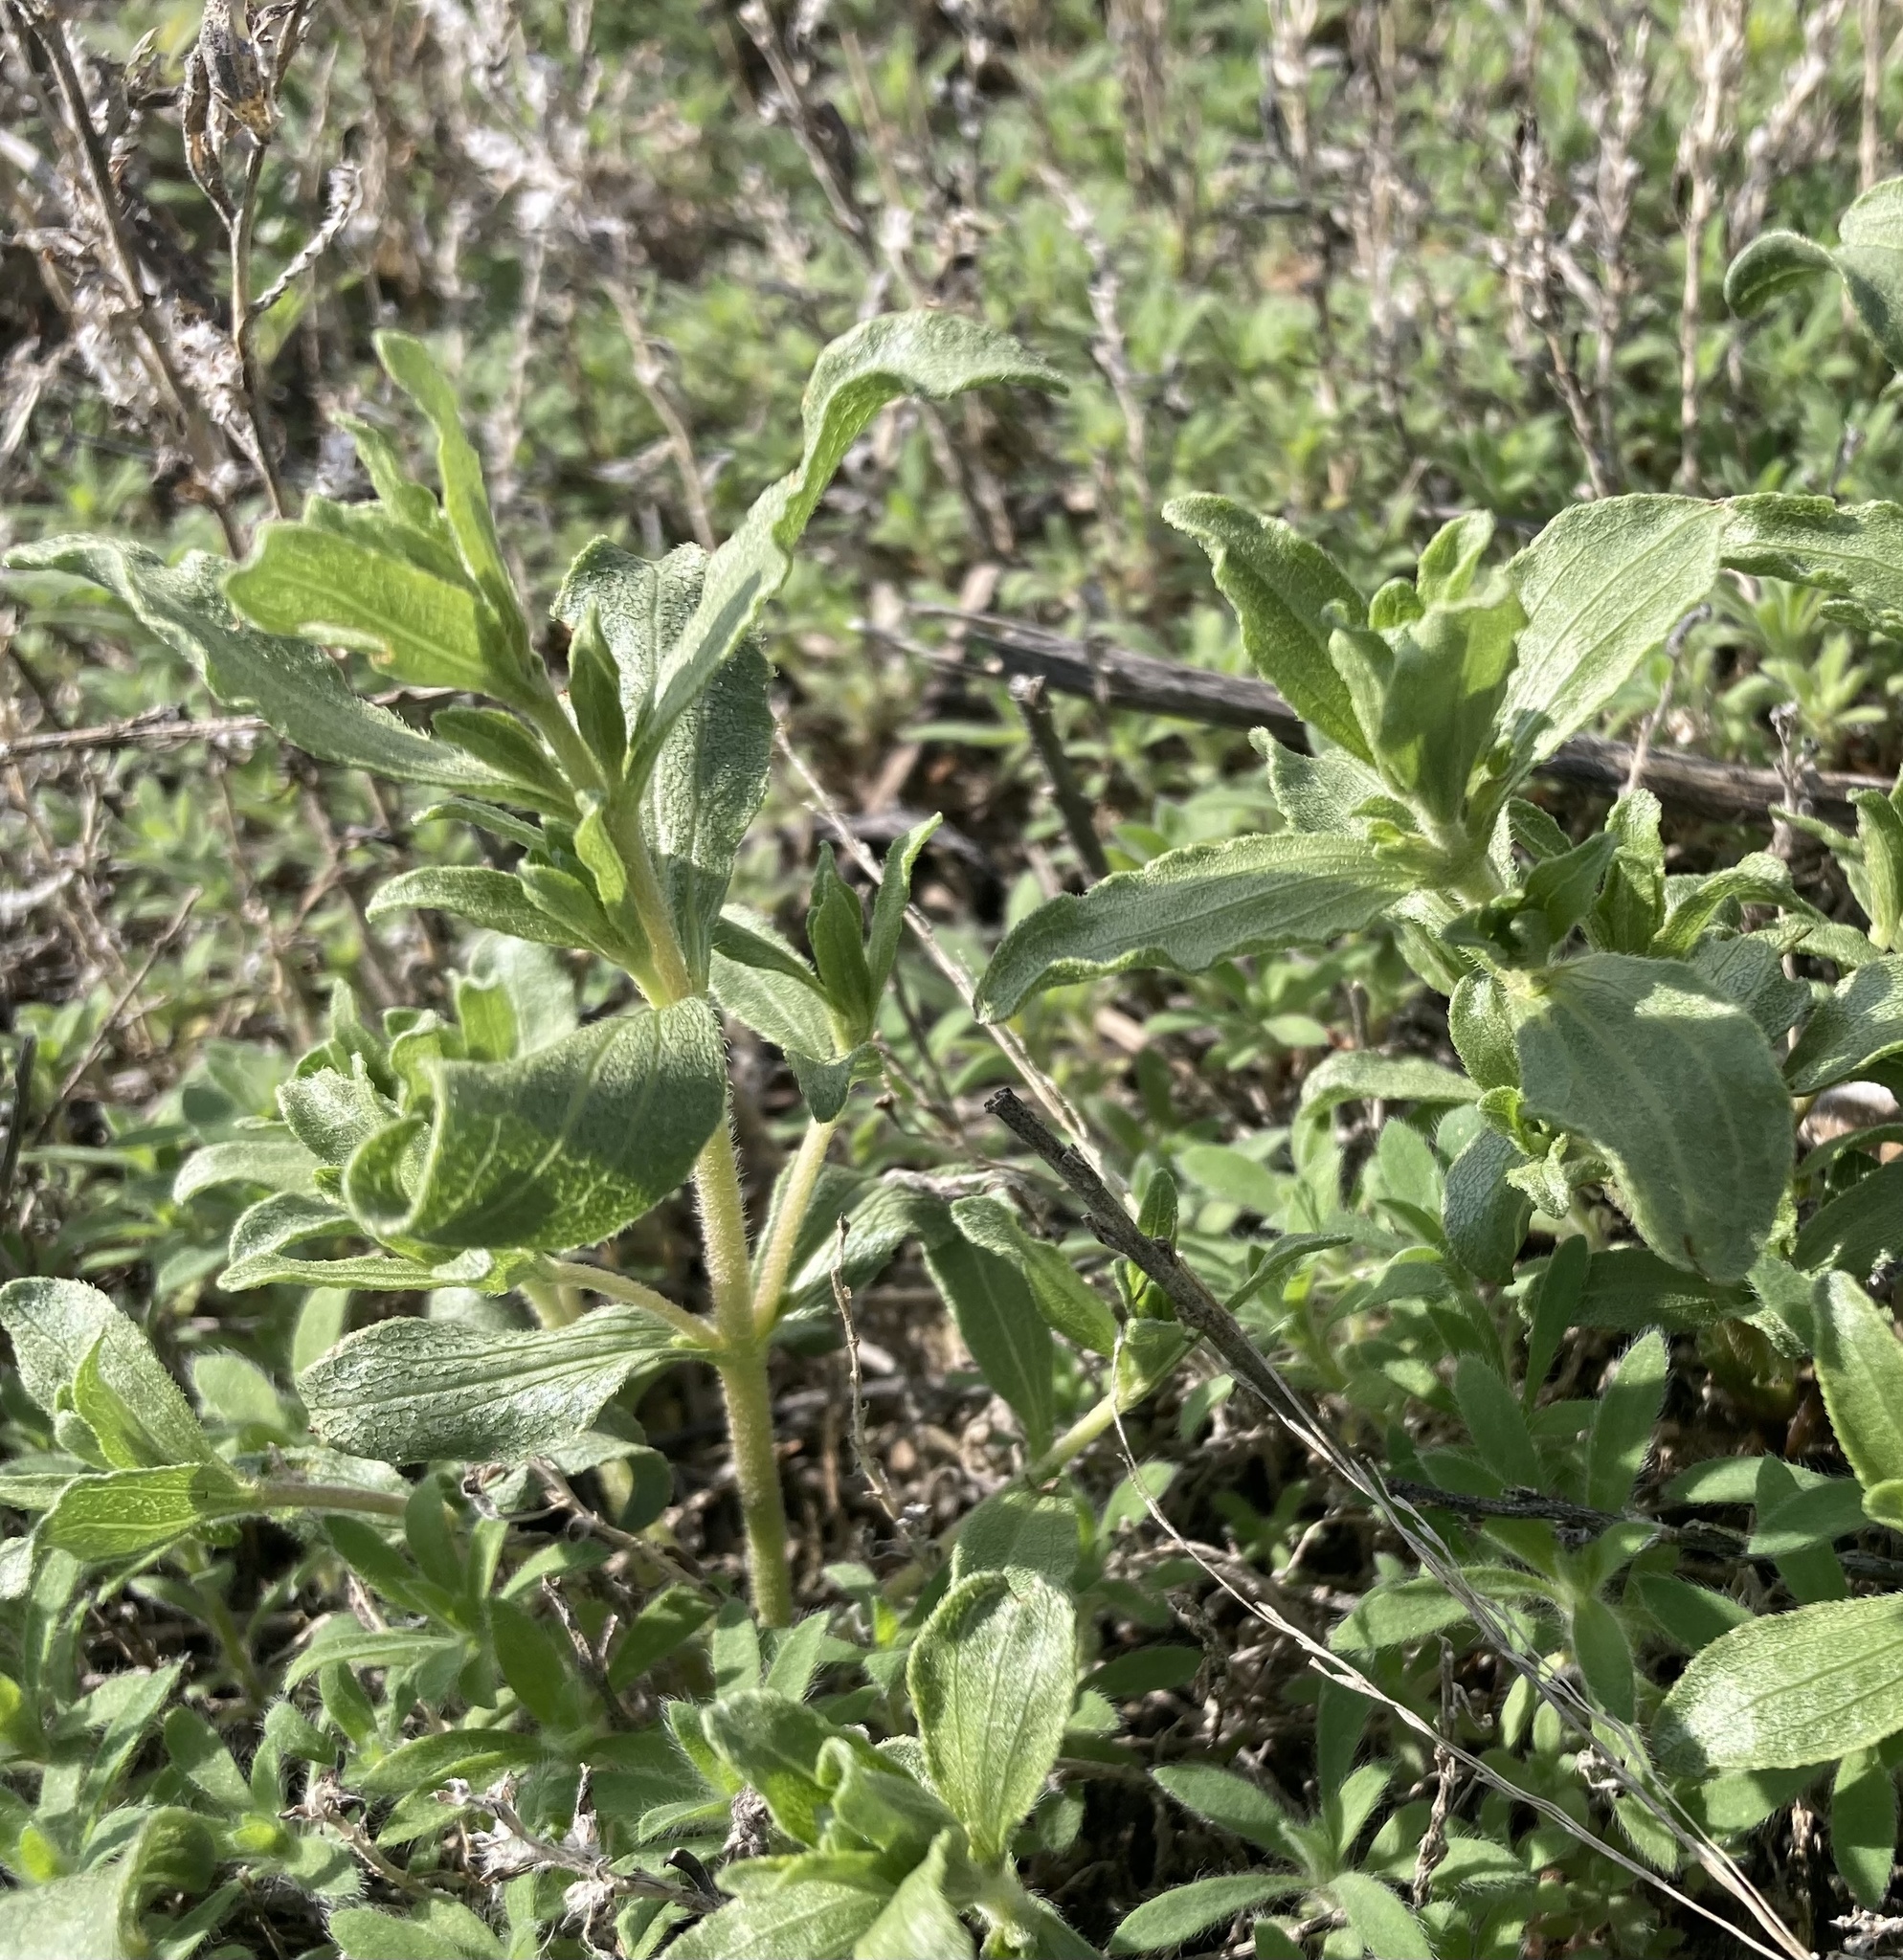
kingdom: Plantae
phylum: Tracheophyta
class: Magnoliopsida
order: Asterales
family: Asteraceae
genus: Iva
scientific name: Iva axillaris
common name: Poverty sumpweed
